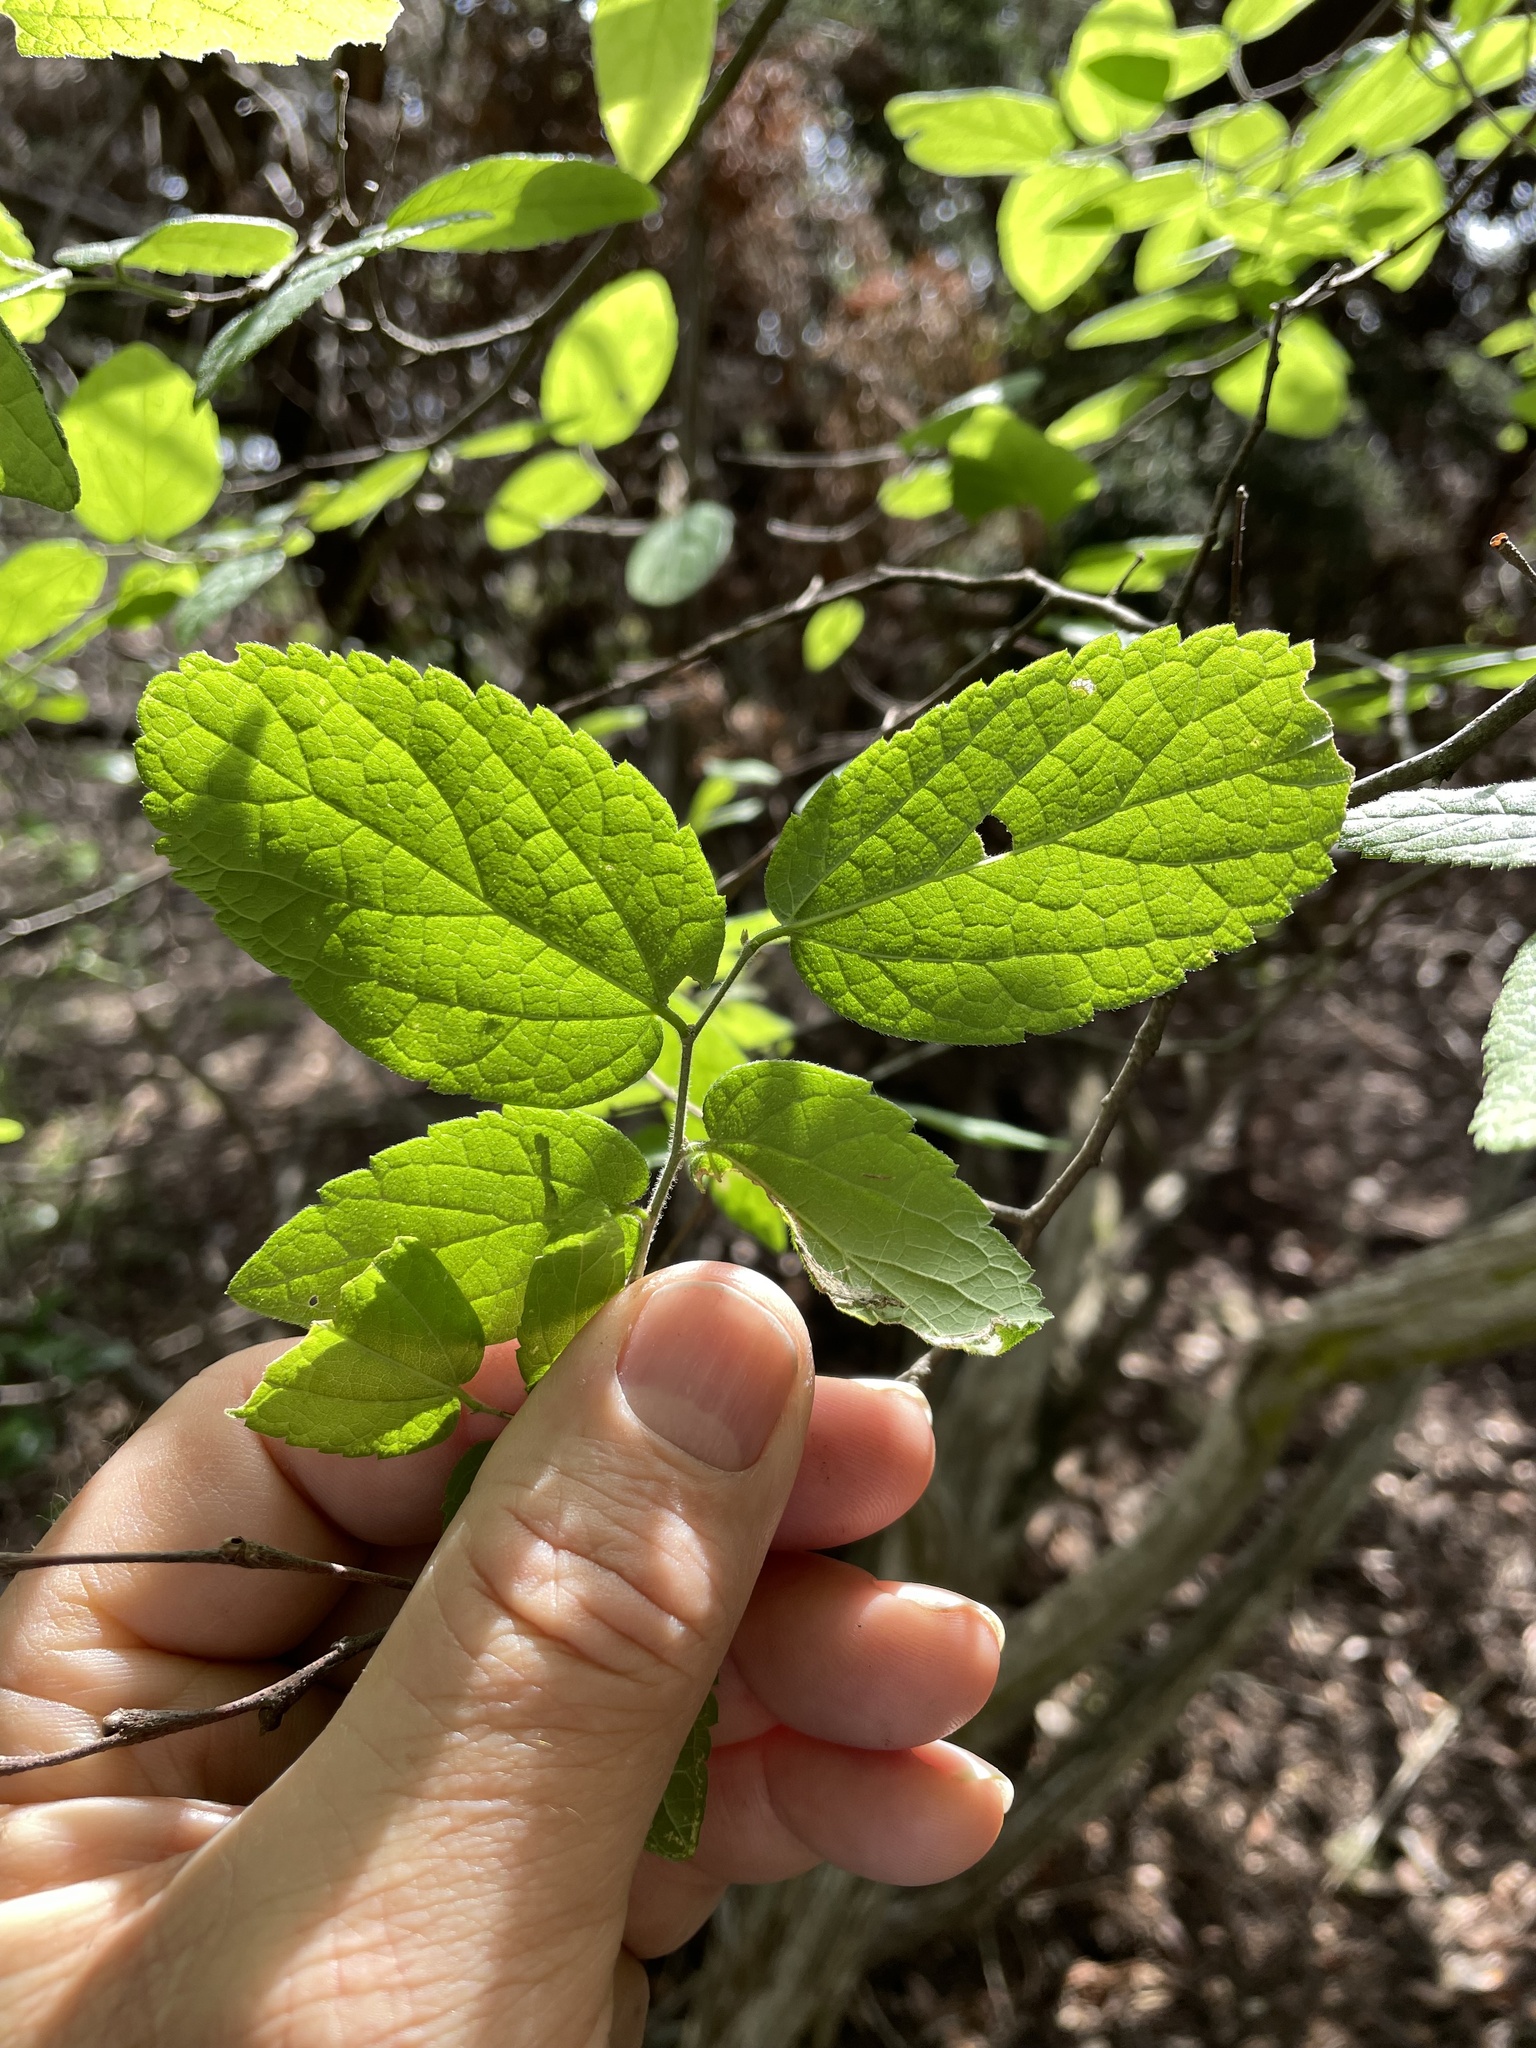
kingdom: Plantae
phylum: Tracheophyta
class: Magnoliopsida
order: Rosales
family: Cannabaceae
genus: Celtis
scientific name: Celtis reticulata
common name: Netleaf hackberry
